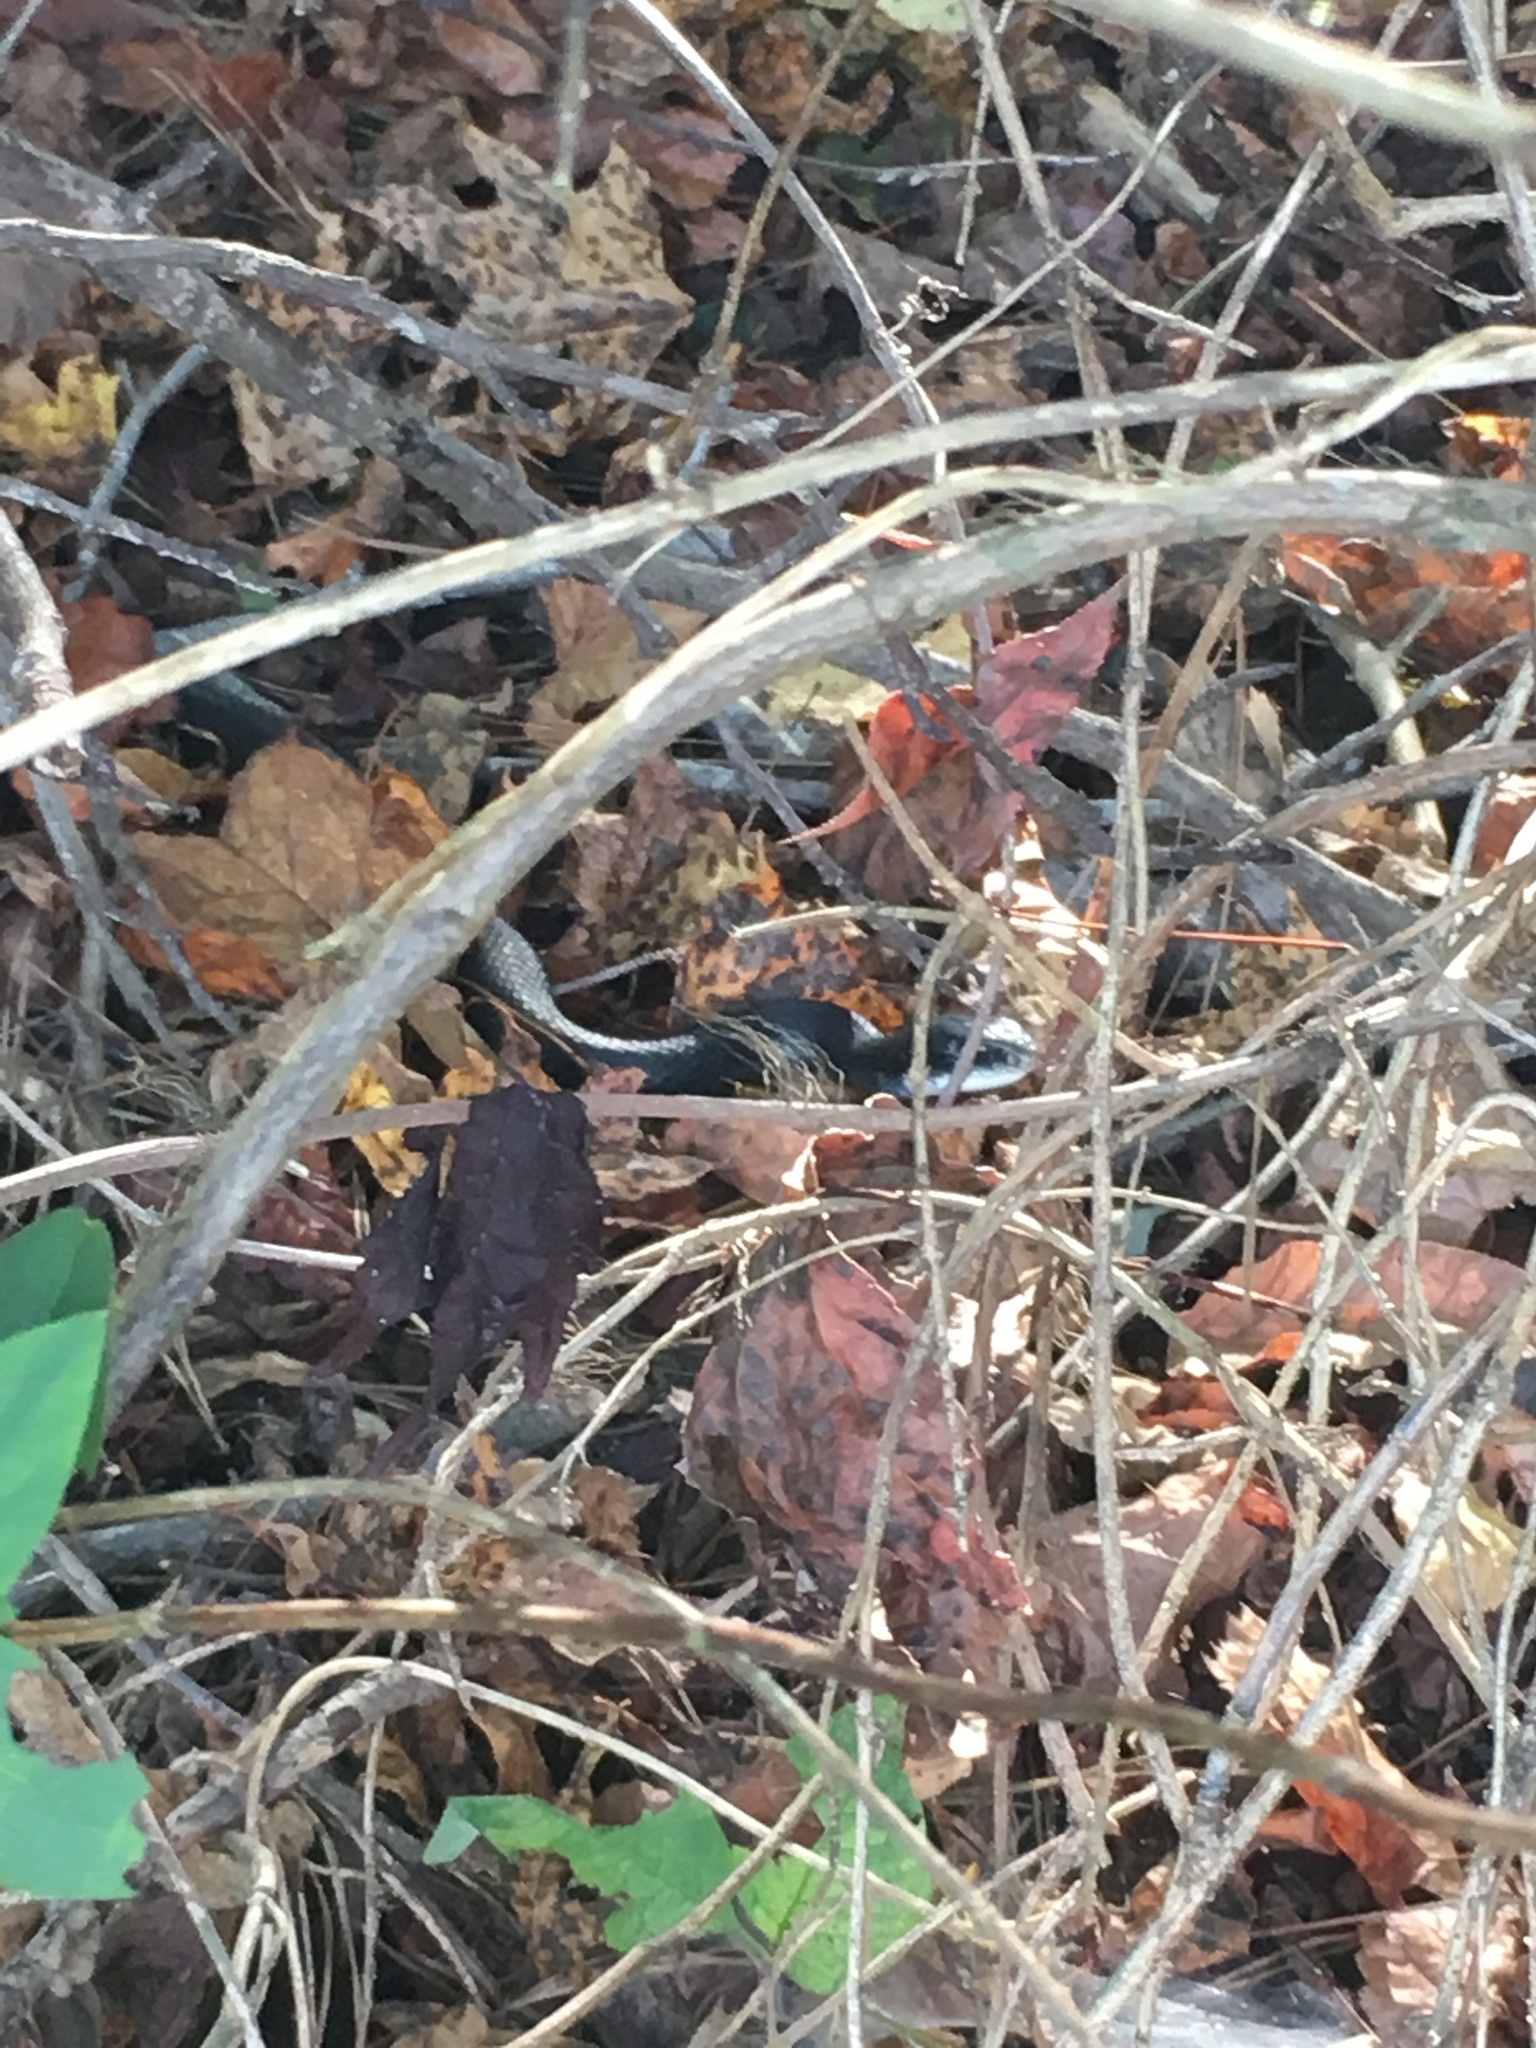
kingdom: Animalia
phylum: Chordata
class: Squamata
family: Colubridae
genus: Coluber
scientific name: Coluber constrictor
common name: Eastern racer
